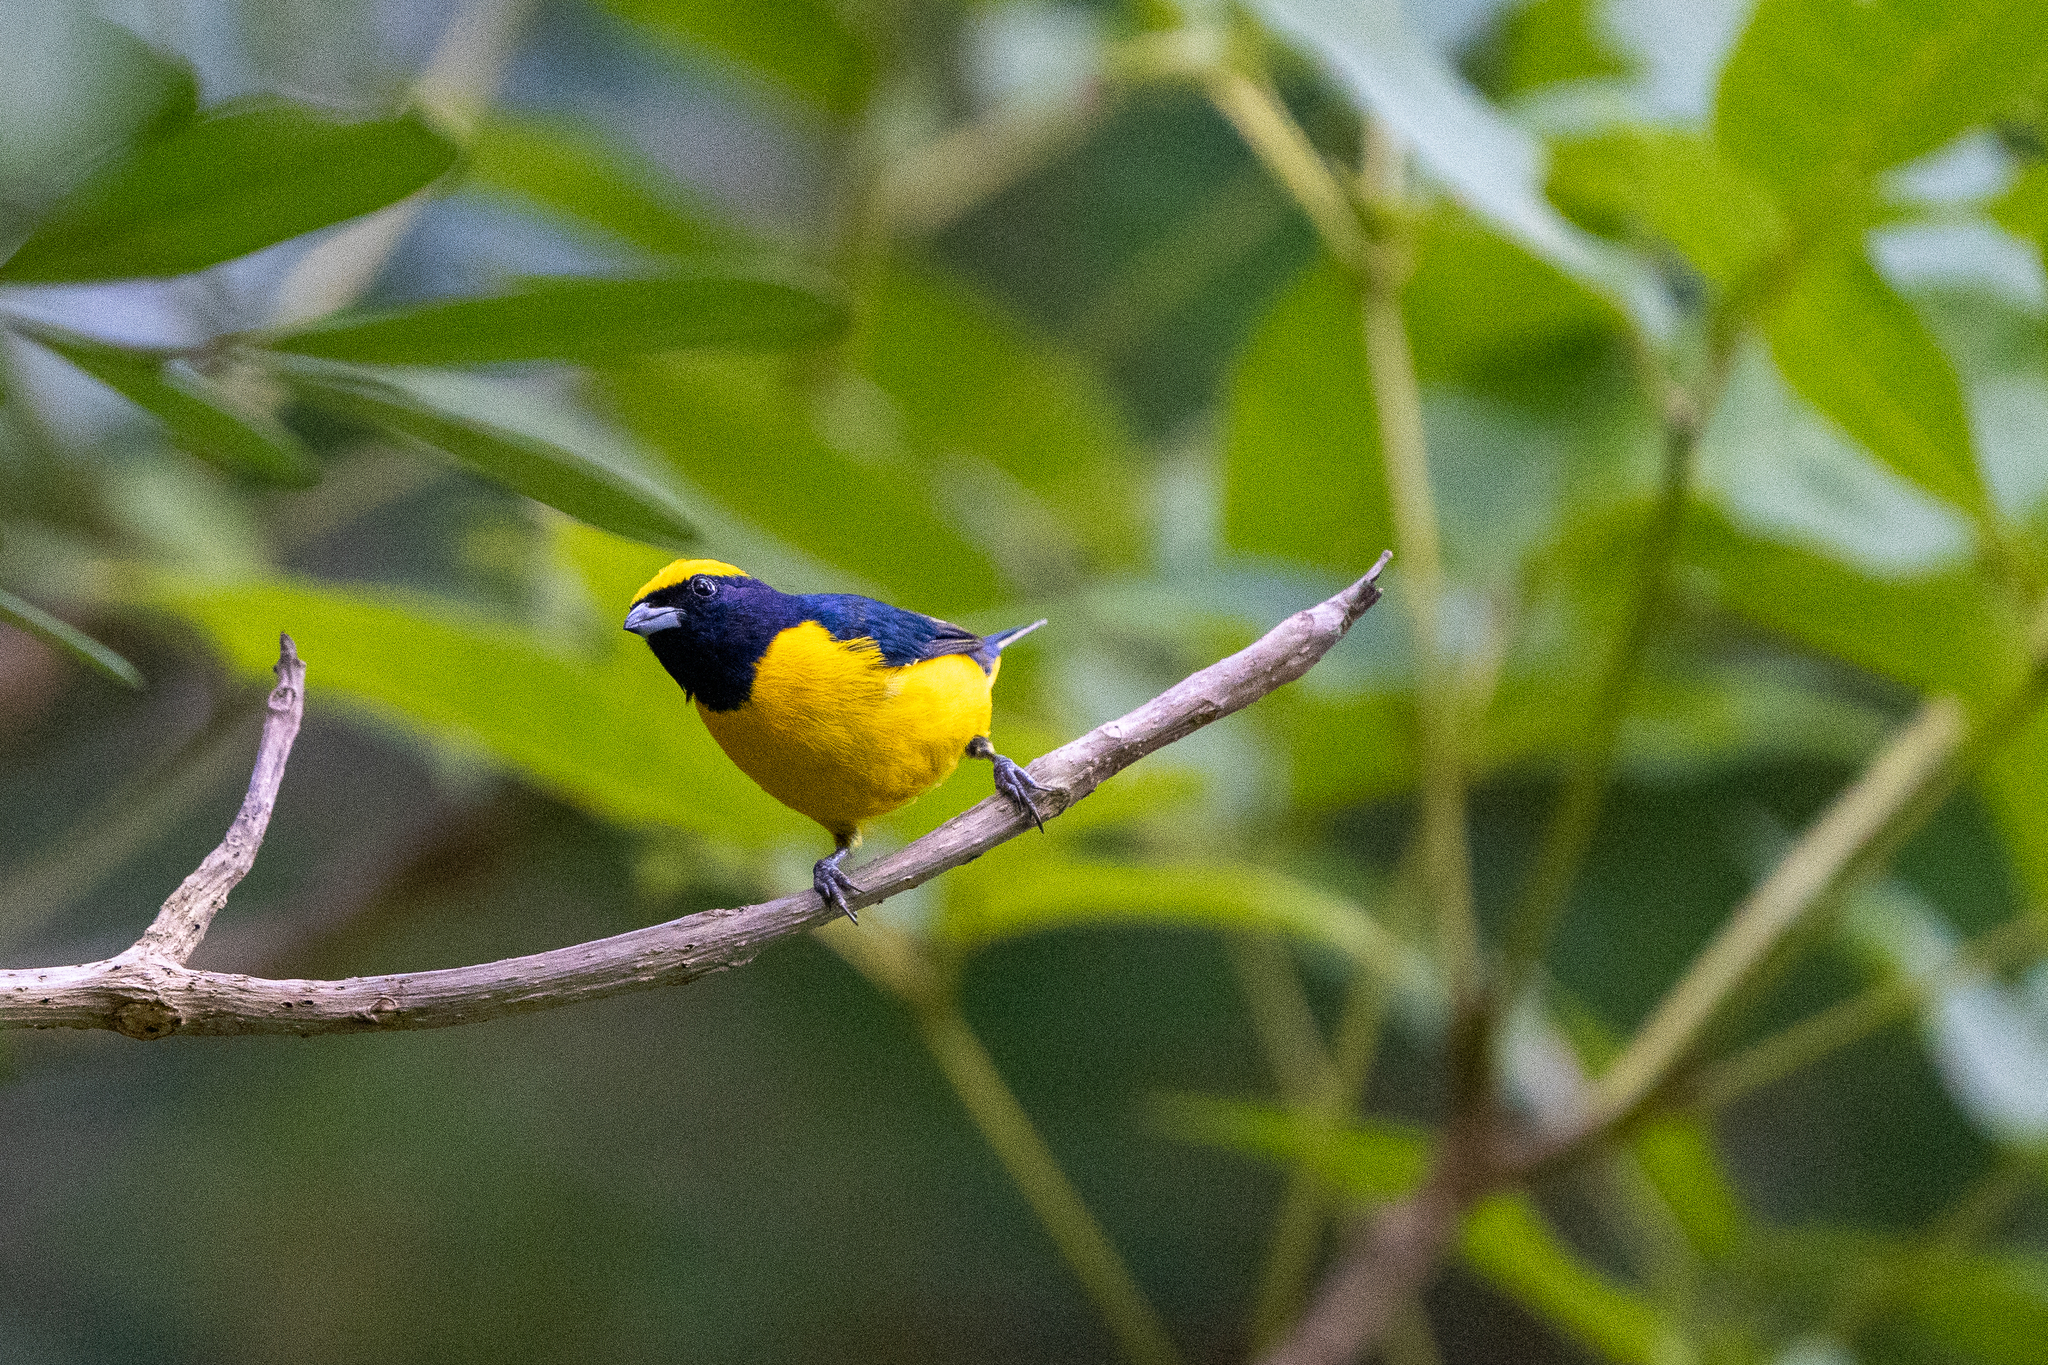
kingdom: Animalia
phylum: Chordata
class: Aves
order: Passeriformes
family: Fringillidae
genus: Euphonia
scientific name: Euphonia luteicapilla
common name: Yellow-crowned euphonia
